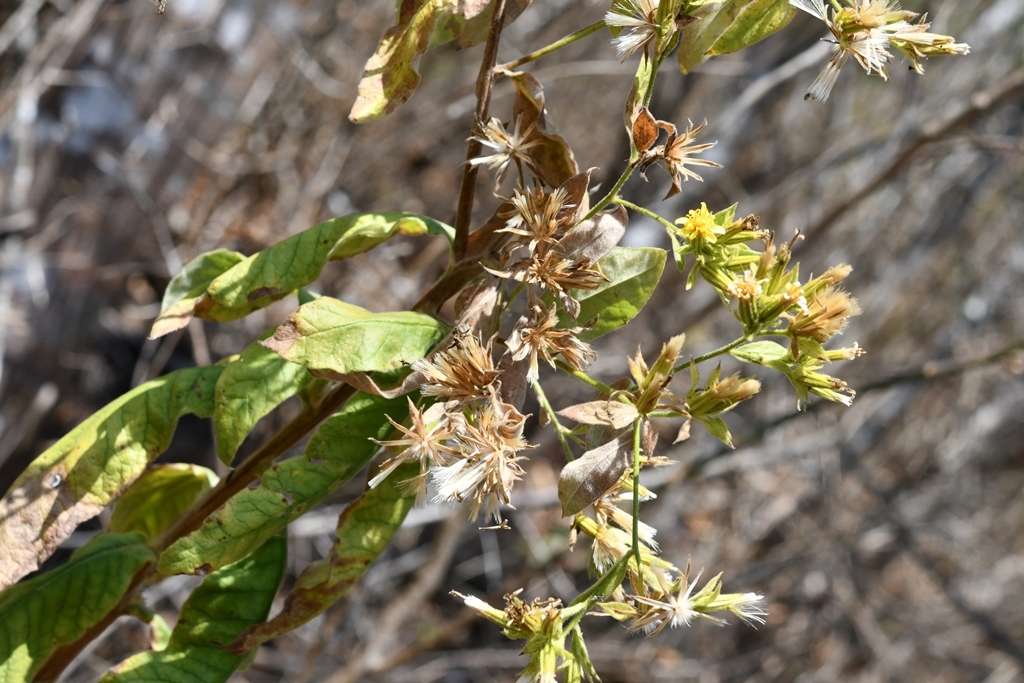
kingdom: Plantae
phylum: Tracheophyta
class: Magnoliopsida
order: Asterales
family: Asteraceae
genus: Trixis
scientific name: Trixis chiapensis
